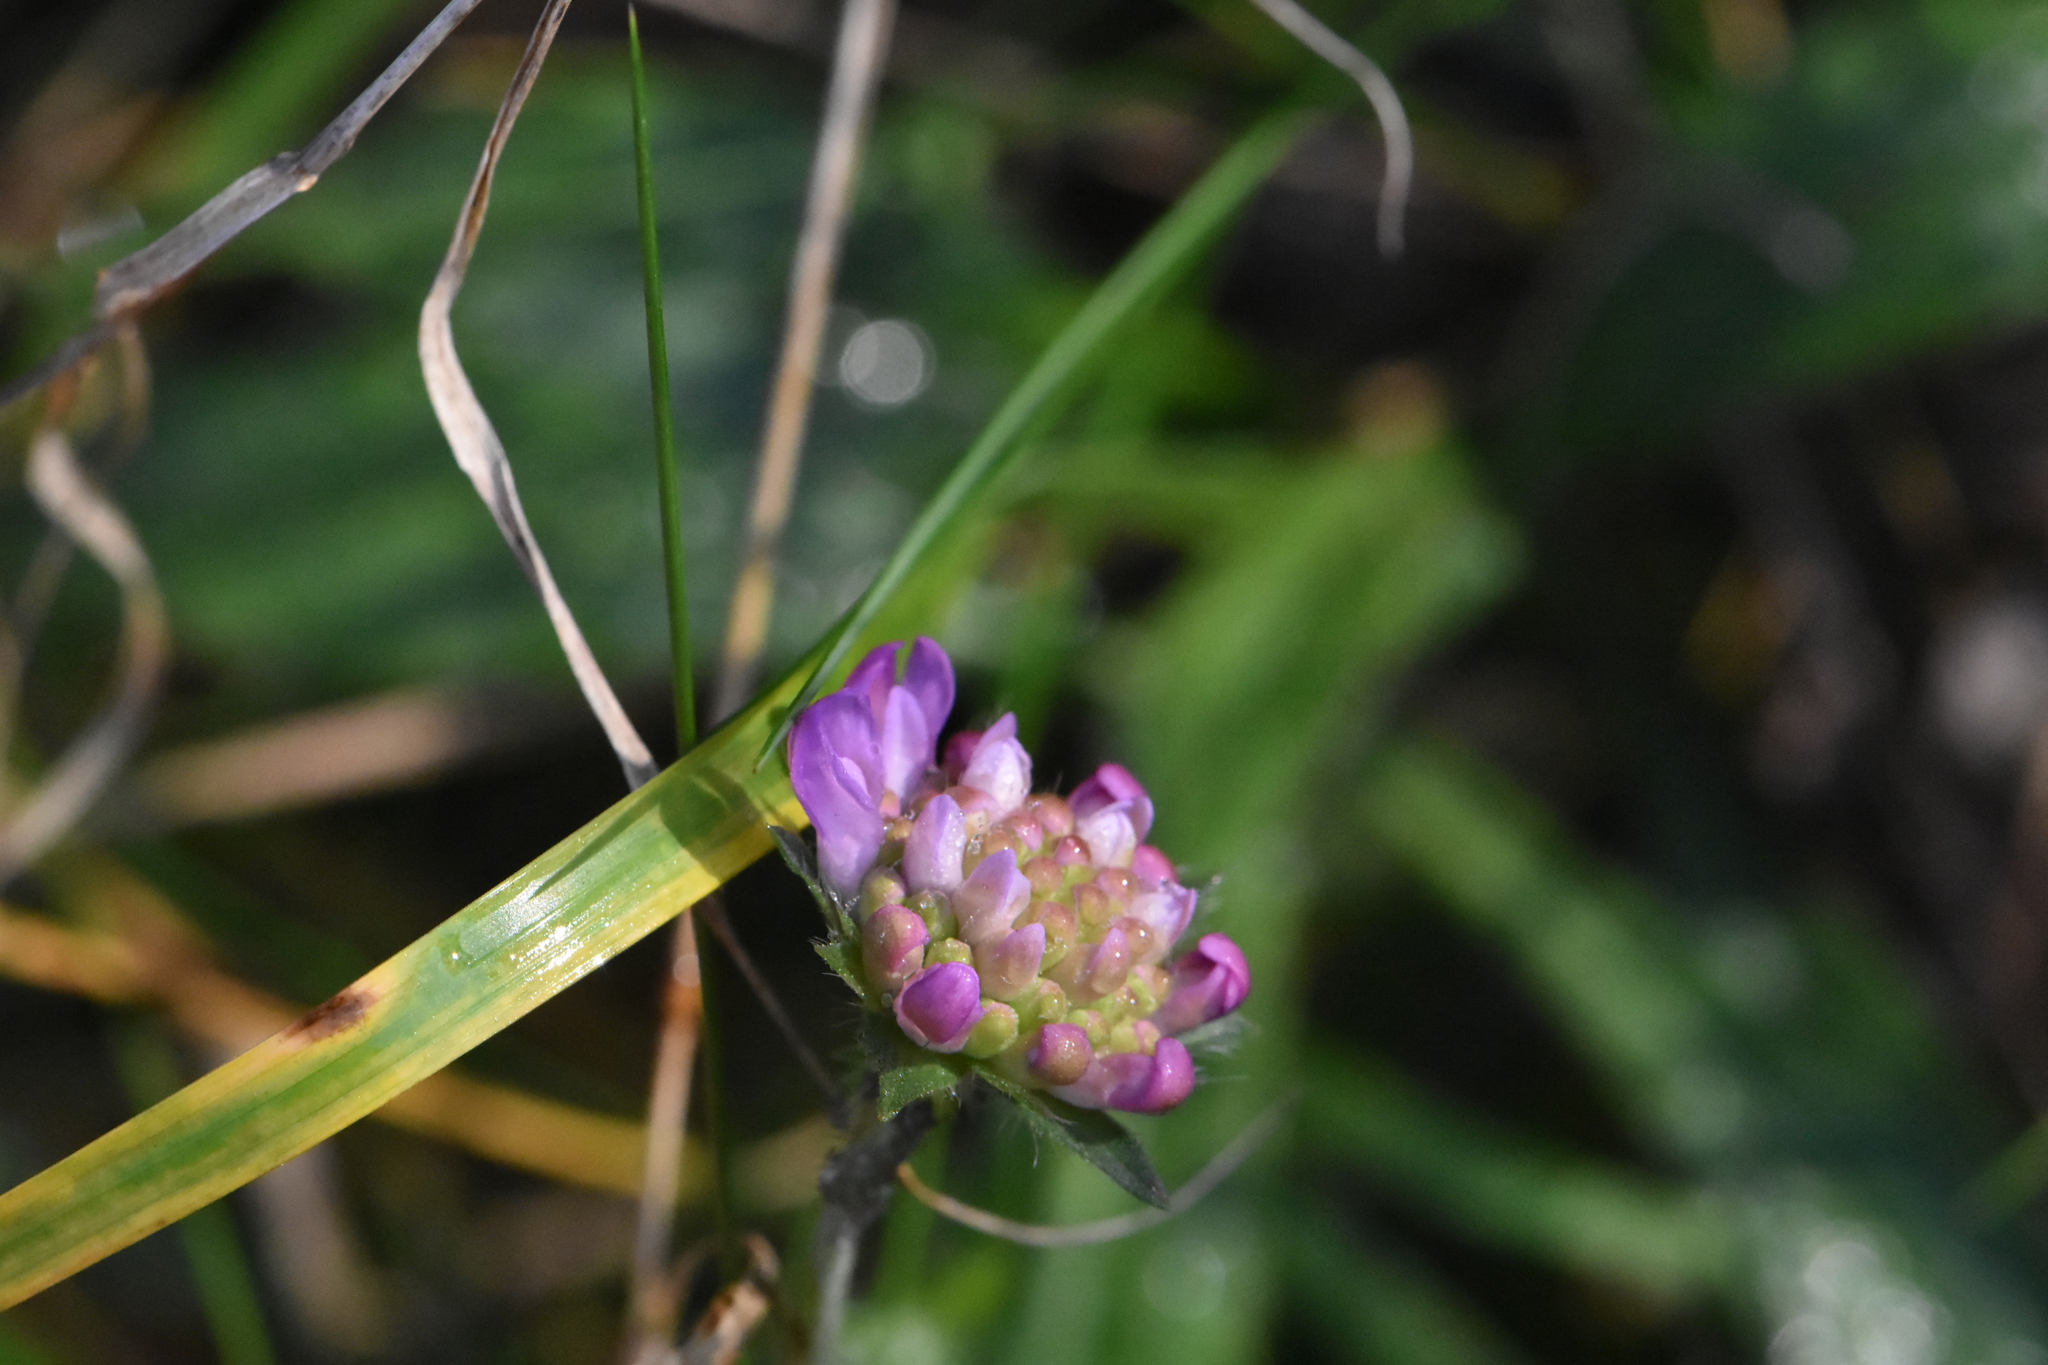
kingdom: Plantae
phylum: Tracheophyta
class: Magnoliopsida
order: Dipsacales
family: Caprifoliaceae
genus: Knautia
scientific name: Knautia arvensis
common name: Field scabiosa
